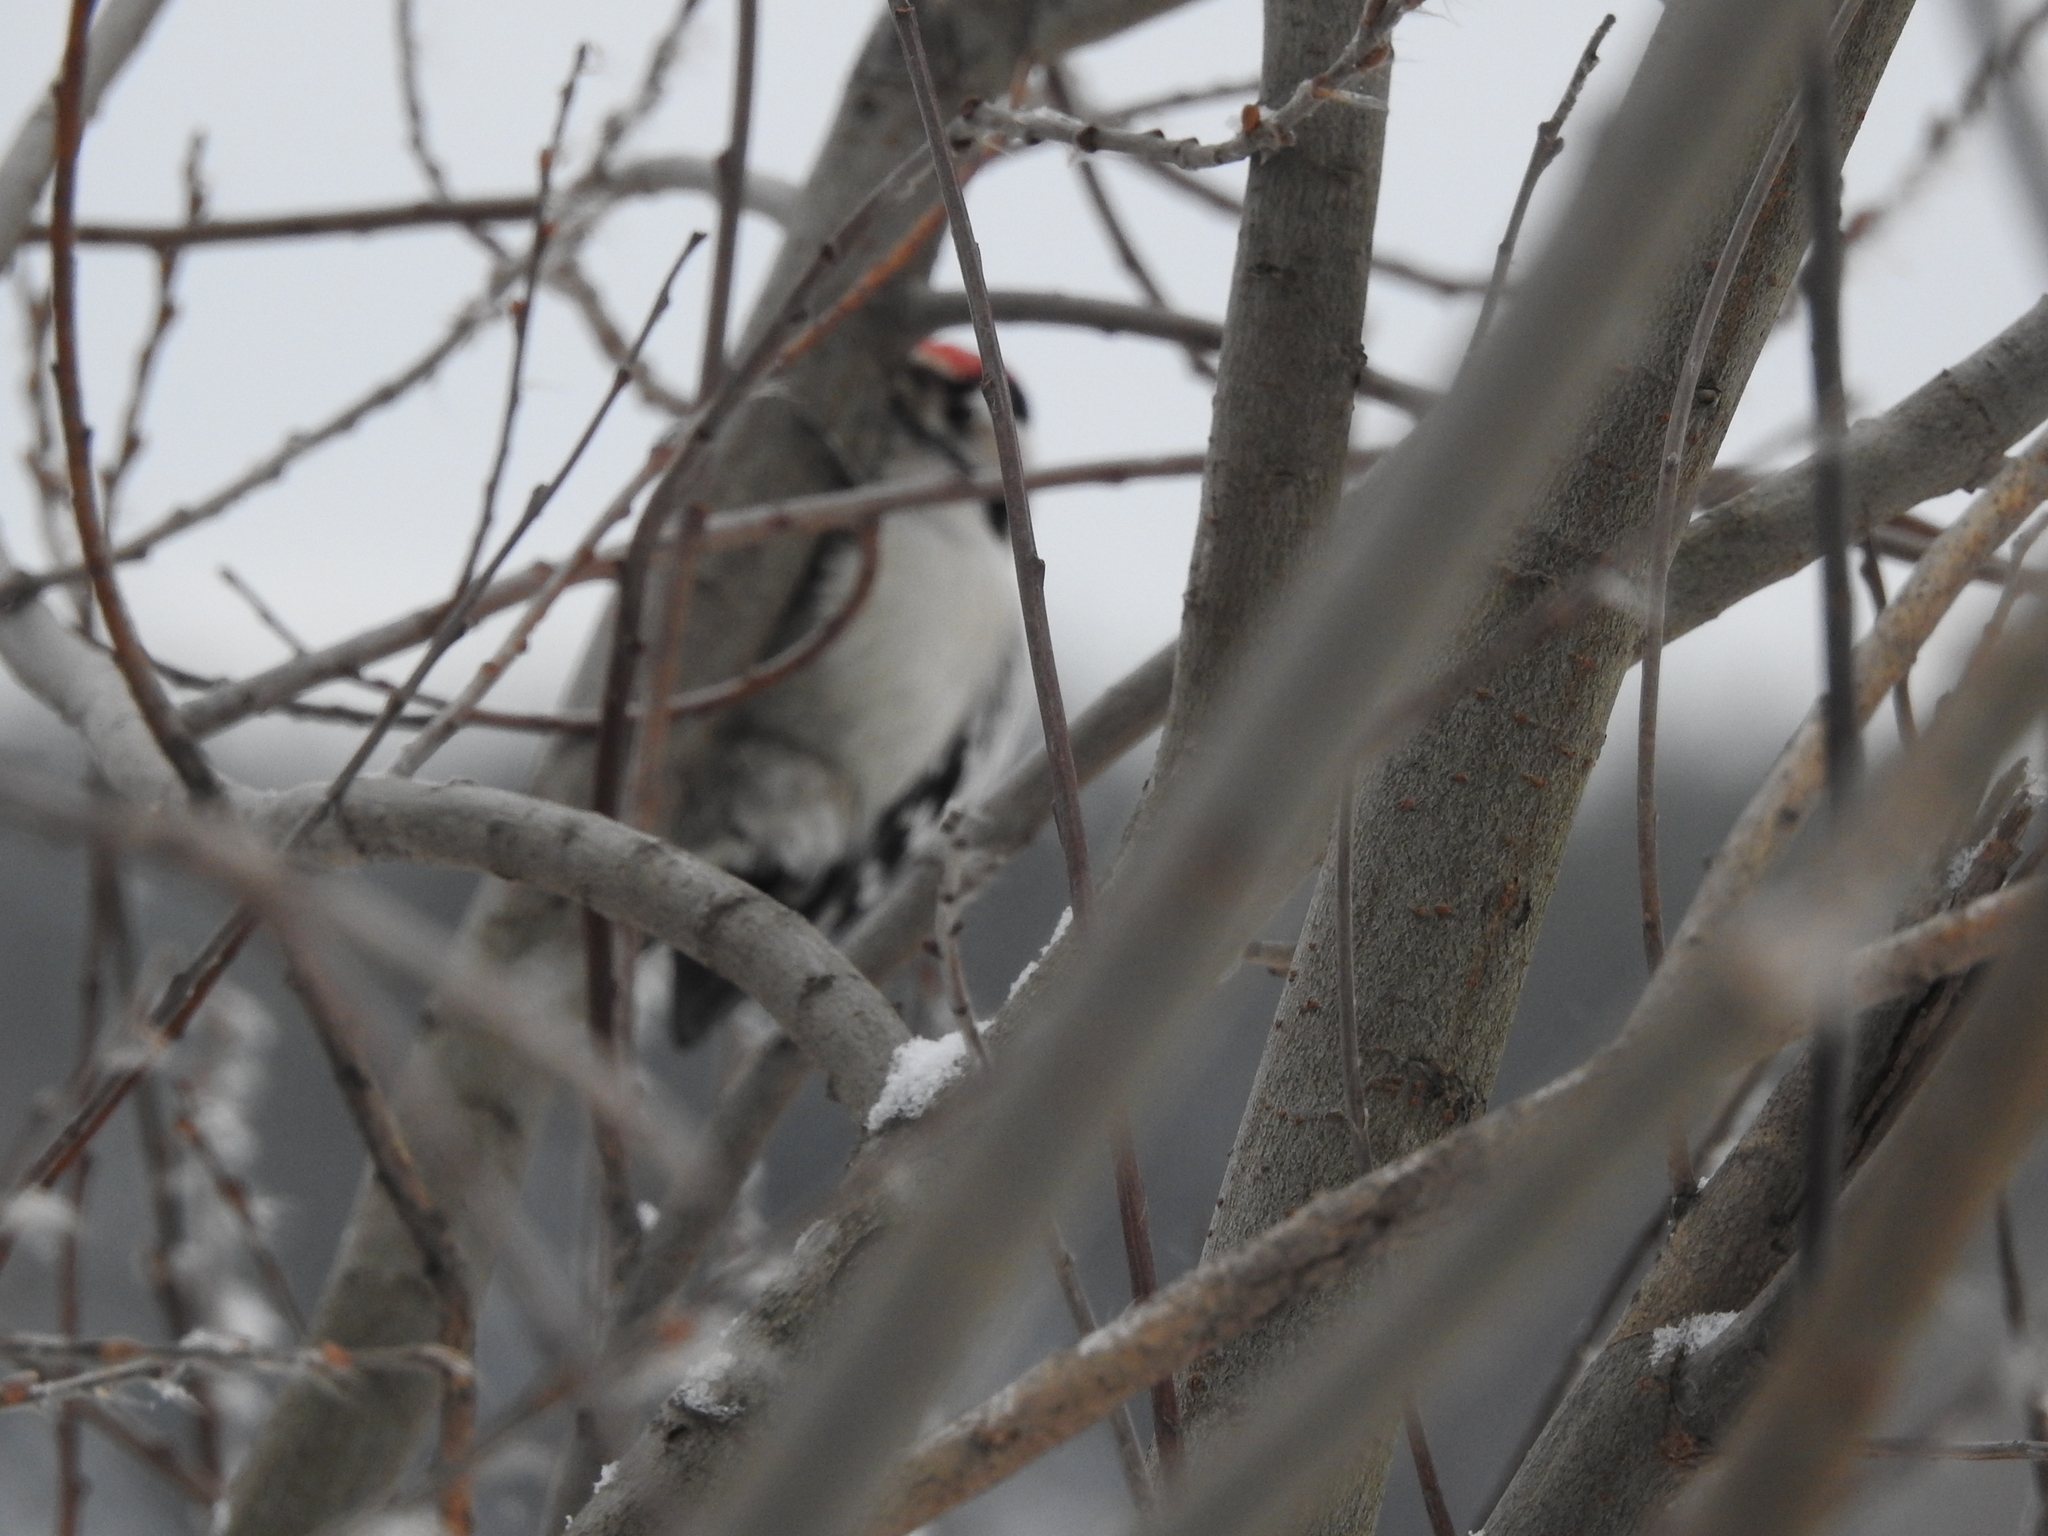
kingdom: Animalia
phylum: Chordata
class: Aves
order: Piciformes
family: Picidae
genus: Dryobates
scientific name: Dryobates minor
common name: Lesser spotted woodpecker
